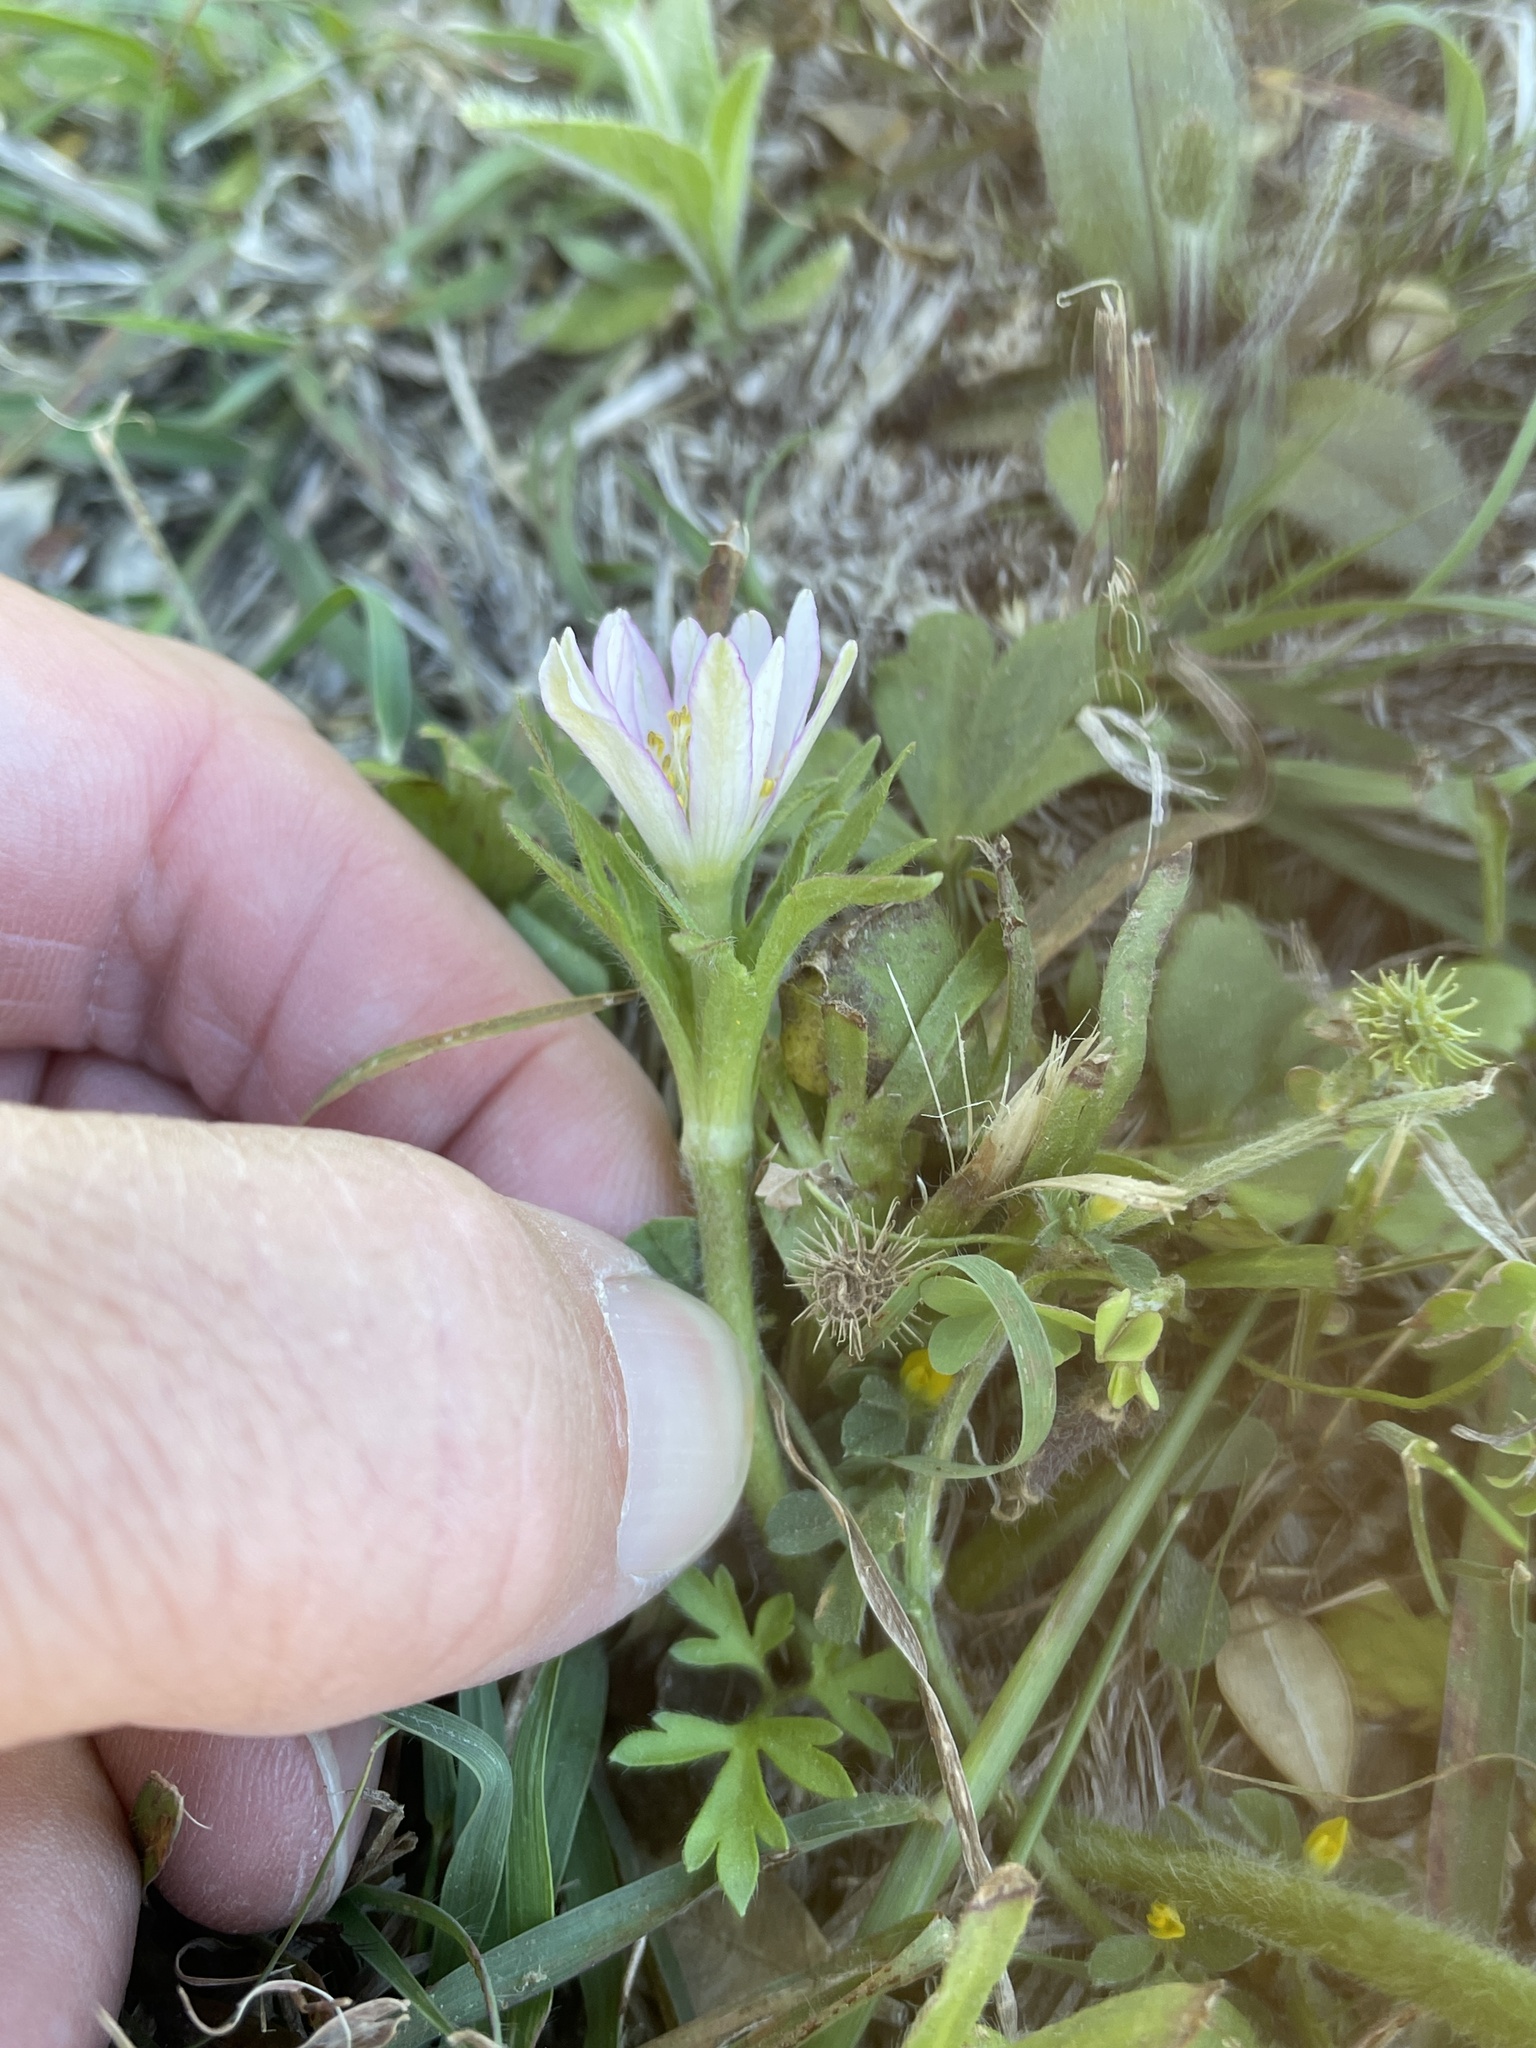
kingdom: Plantae
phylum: Tracheophyta
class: Magnoliopsida
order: Ranunculales
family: Ranunculaceae
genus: Anemone
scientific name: Anemone berlandieri
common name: Ten-petal anemone
